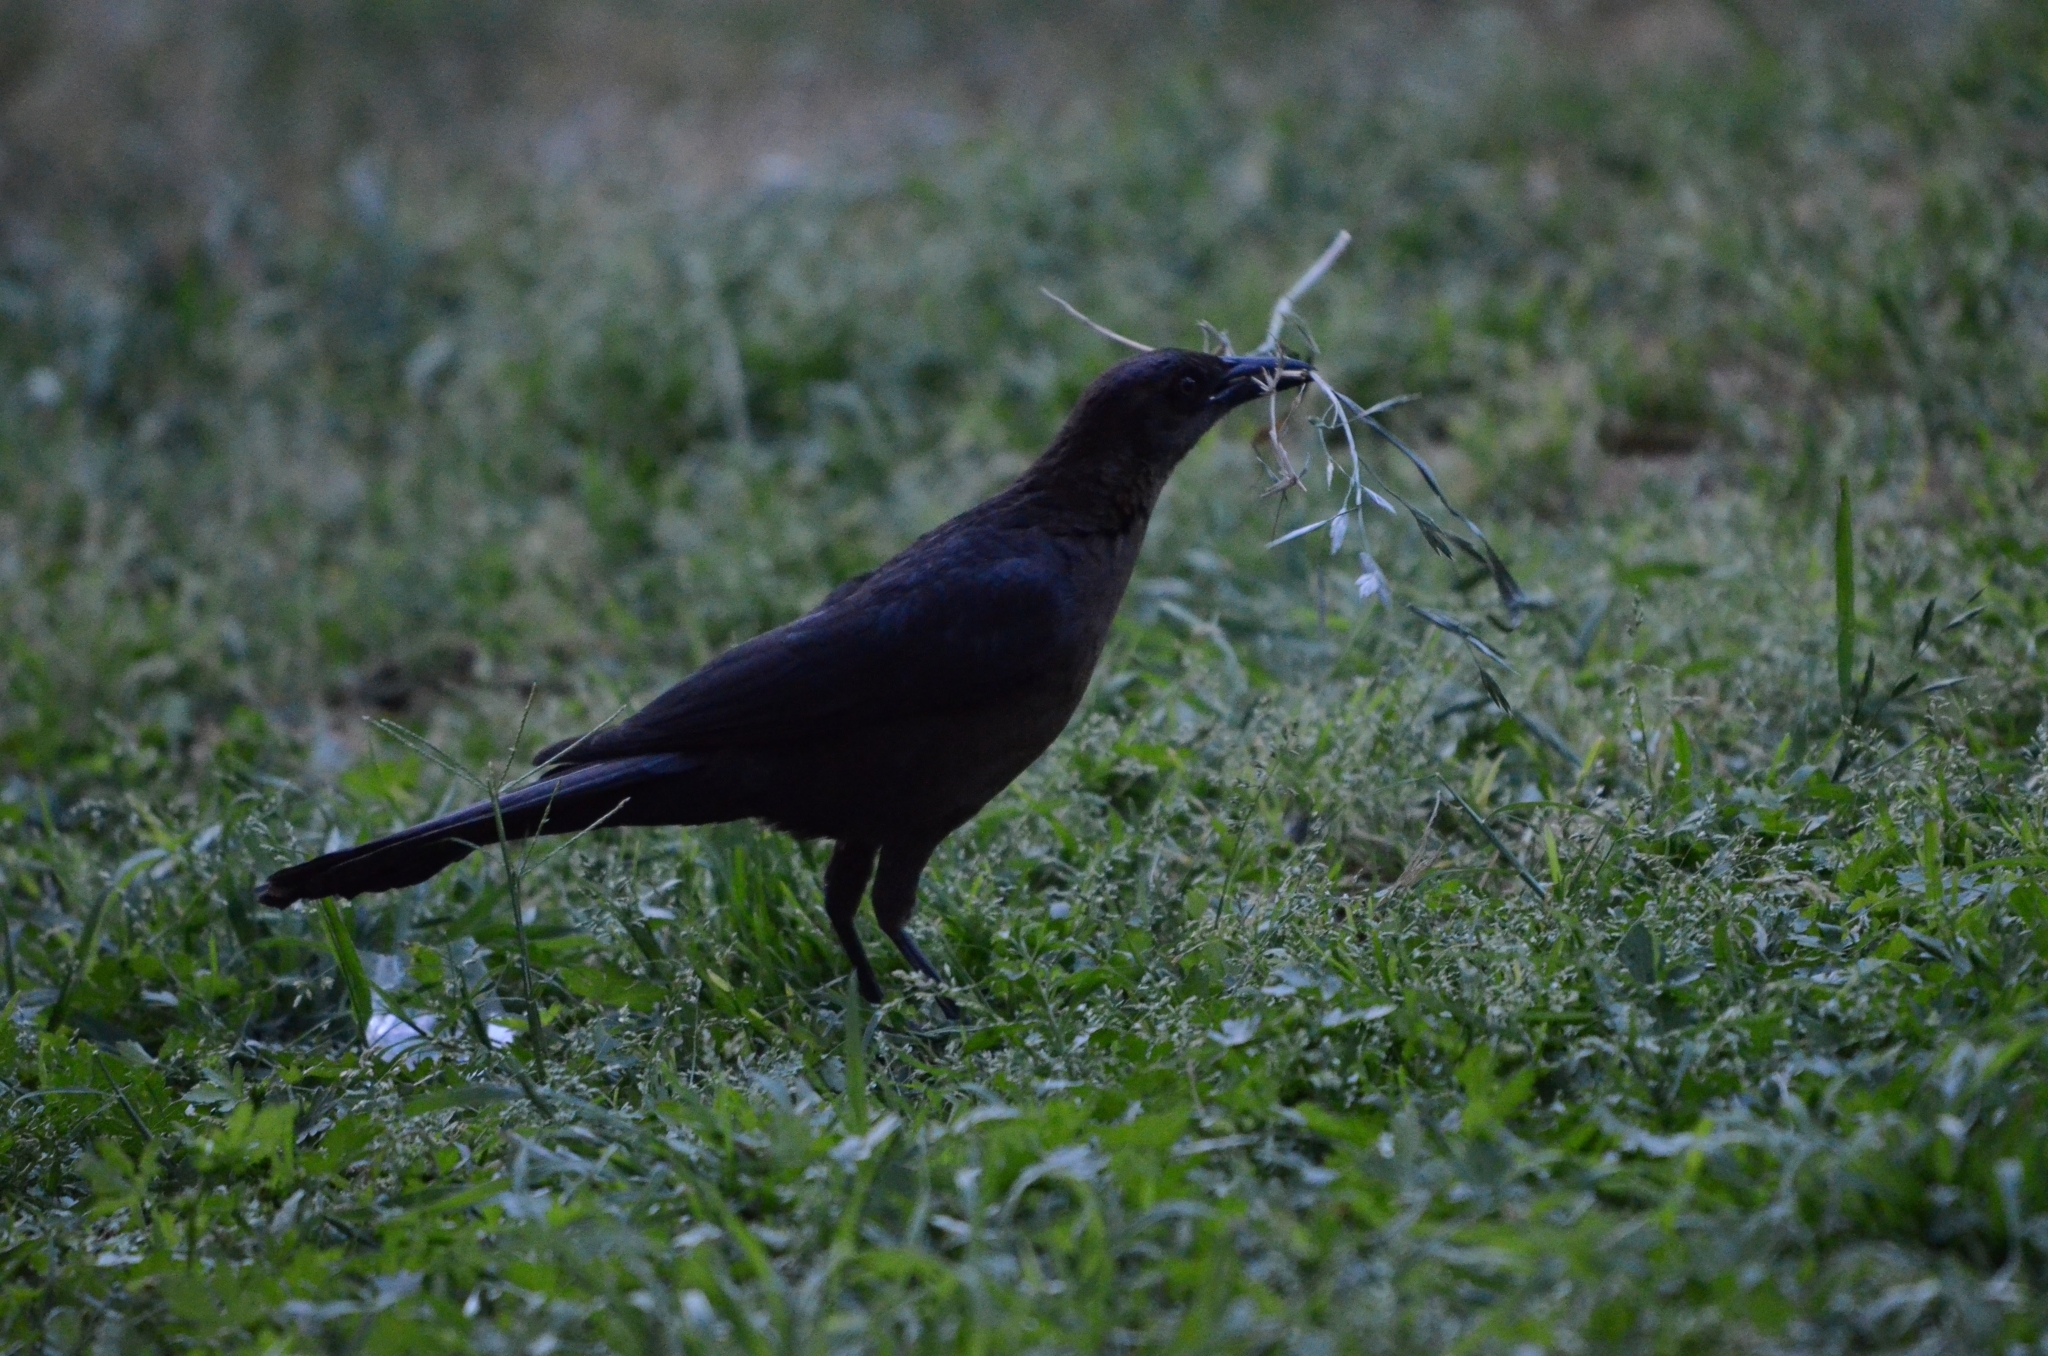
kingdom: Animalia
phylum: Chordata
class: Aves
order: Passeriformes
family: Icteridae
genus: Quiscalus
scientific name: Quiscalus mexicanus
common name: Great-tailed grackle
